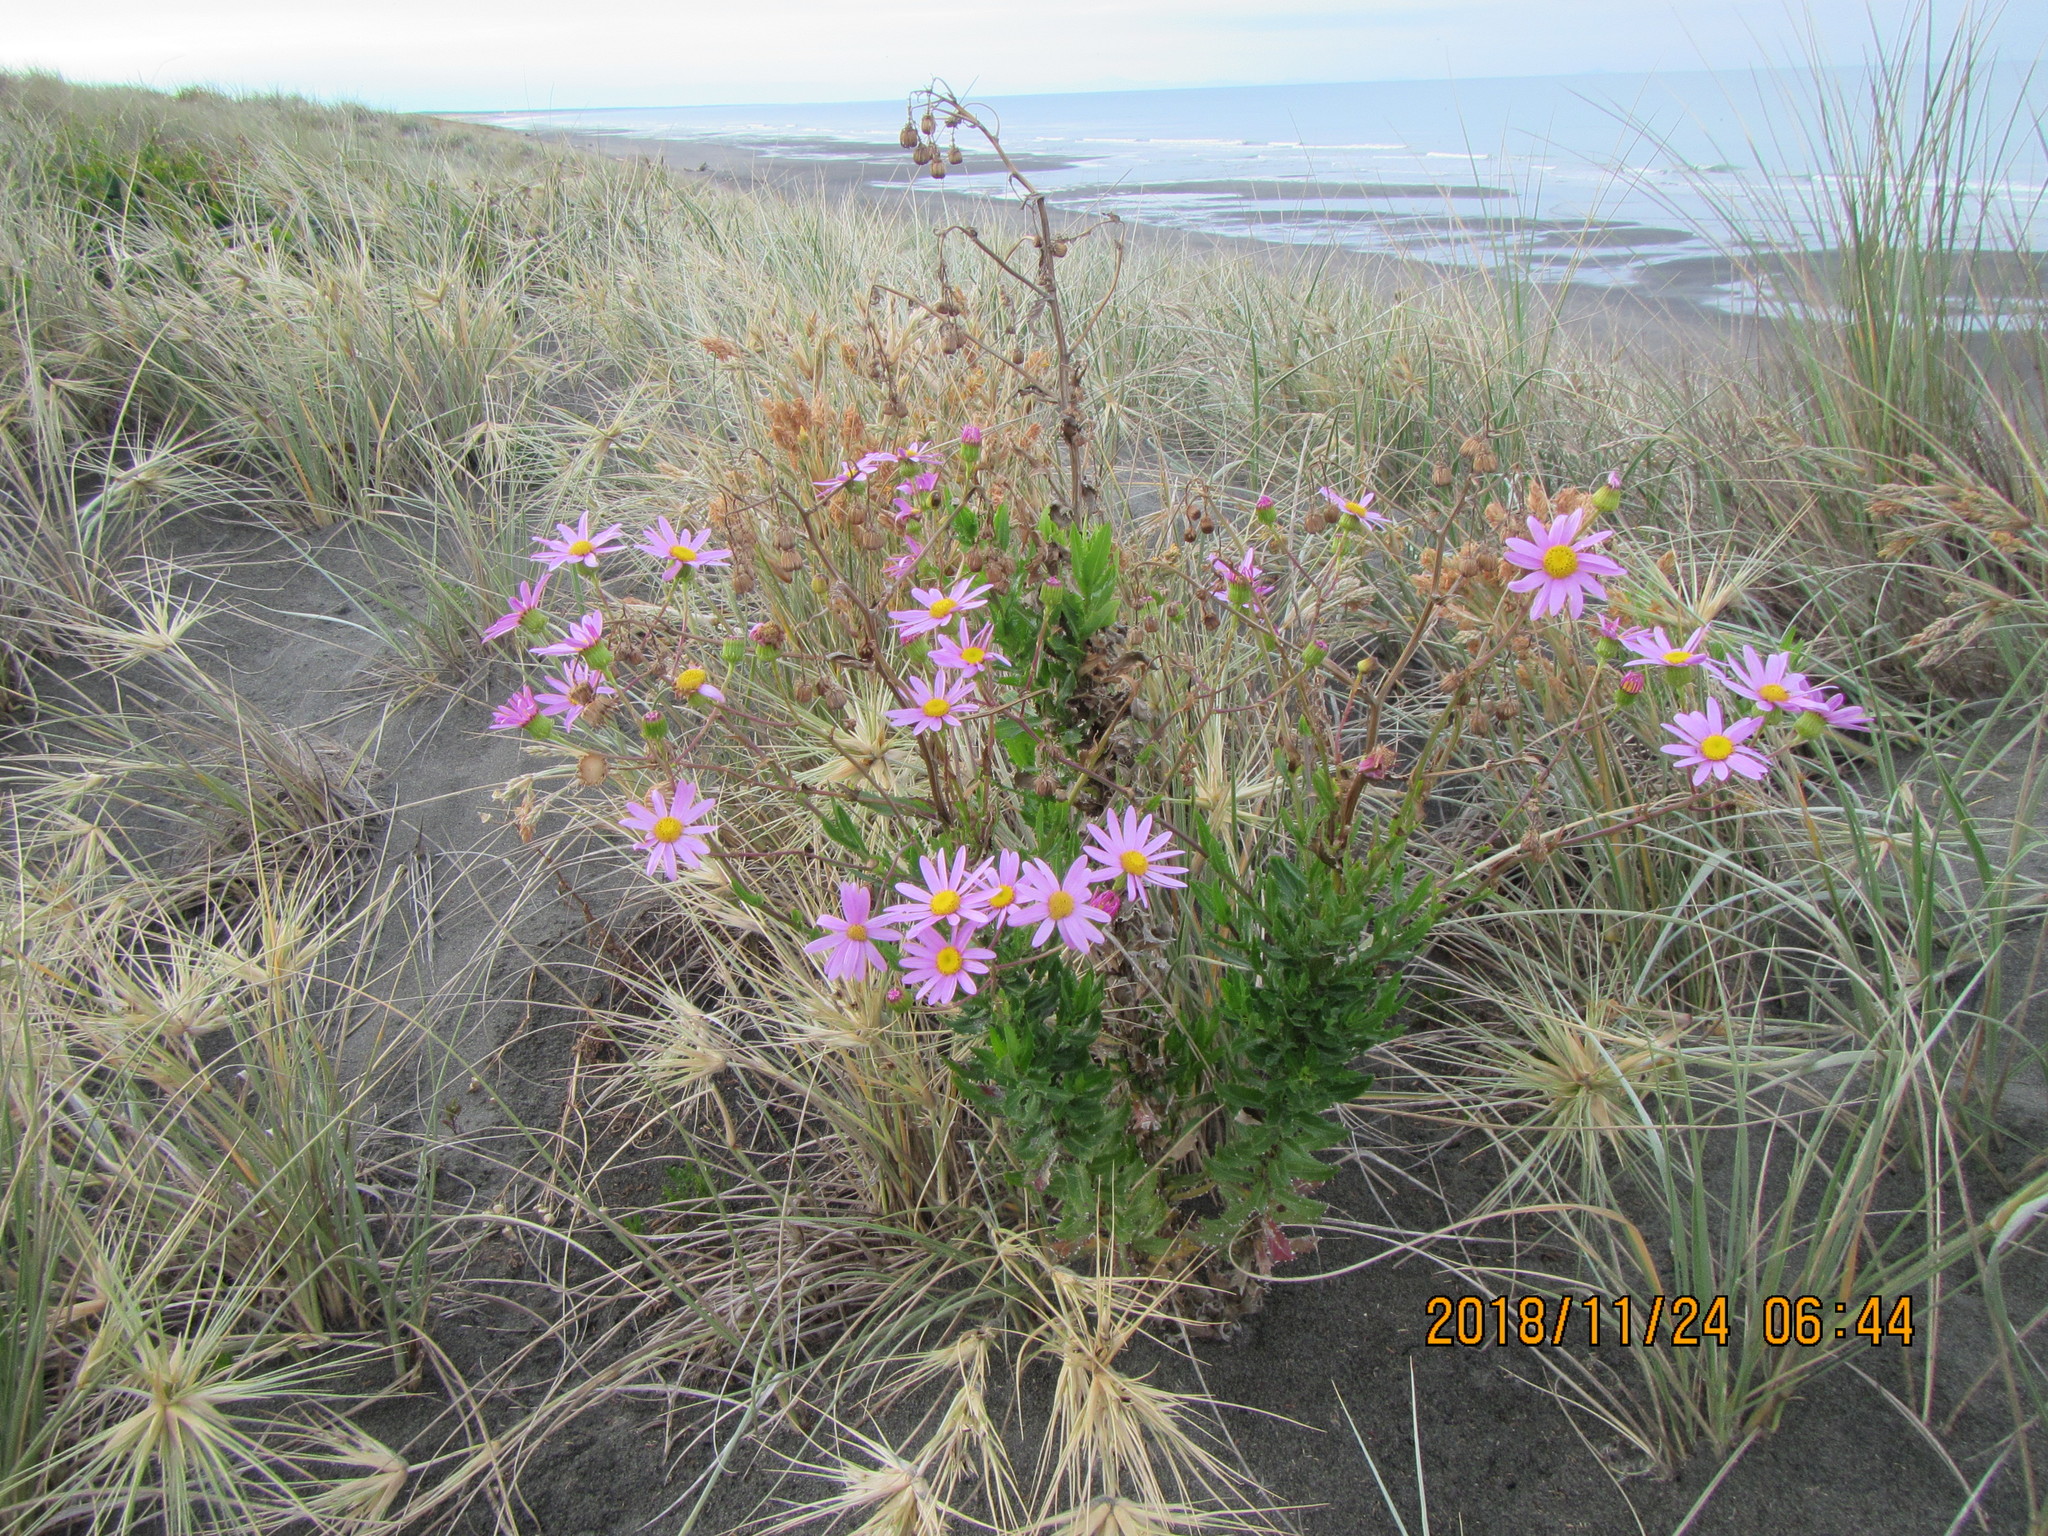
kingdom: Plantae
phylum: Tracheophyta
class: Magnoliopsida
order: Asterales
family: Asteraceae
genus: Senecio
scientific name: Senecio glastifolius
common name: Woad-leaved ragwort
